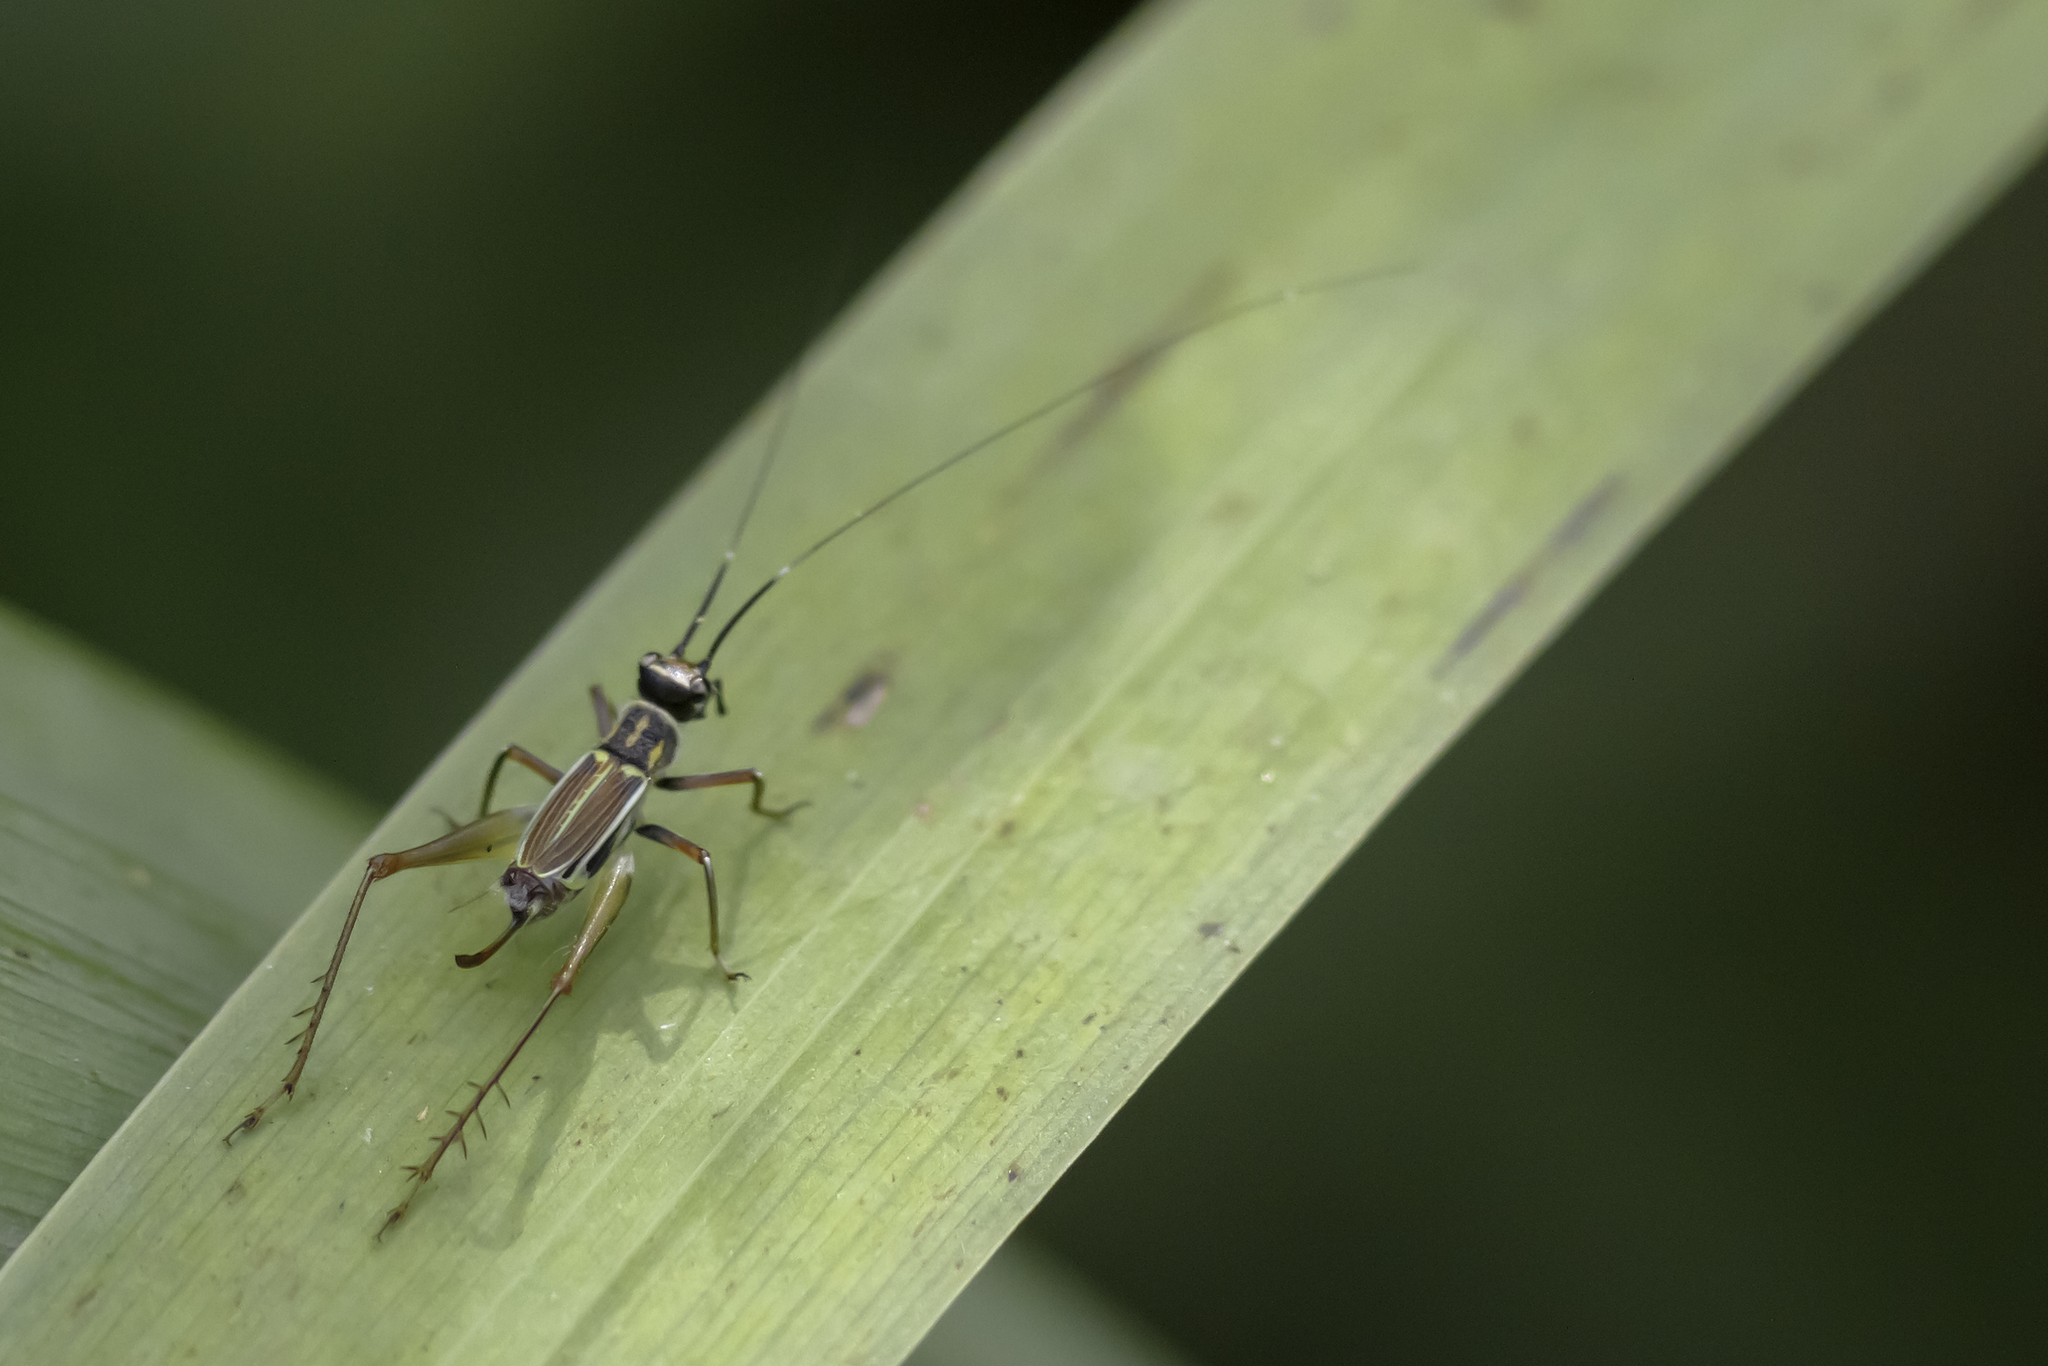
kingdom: Animalia
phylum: Arthropoda
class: Insecta
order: Orthoptera
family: Trigonidiidae
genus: Phylloscyrtus
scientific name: Phylloscyrtus amoenus
